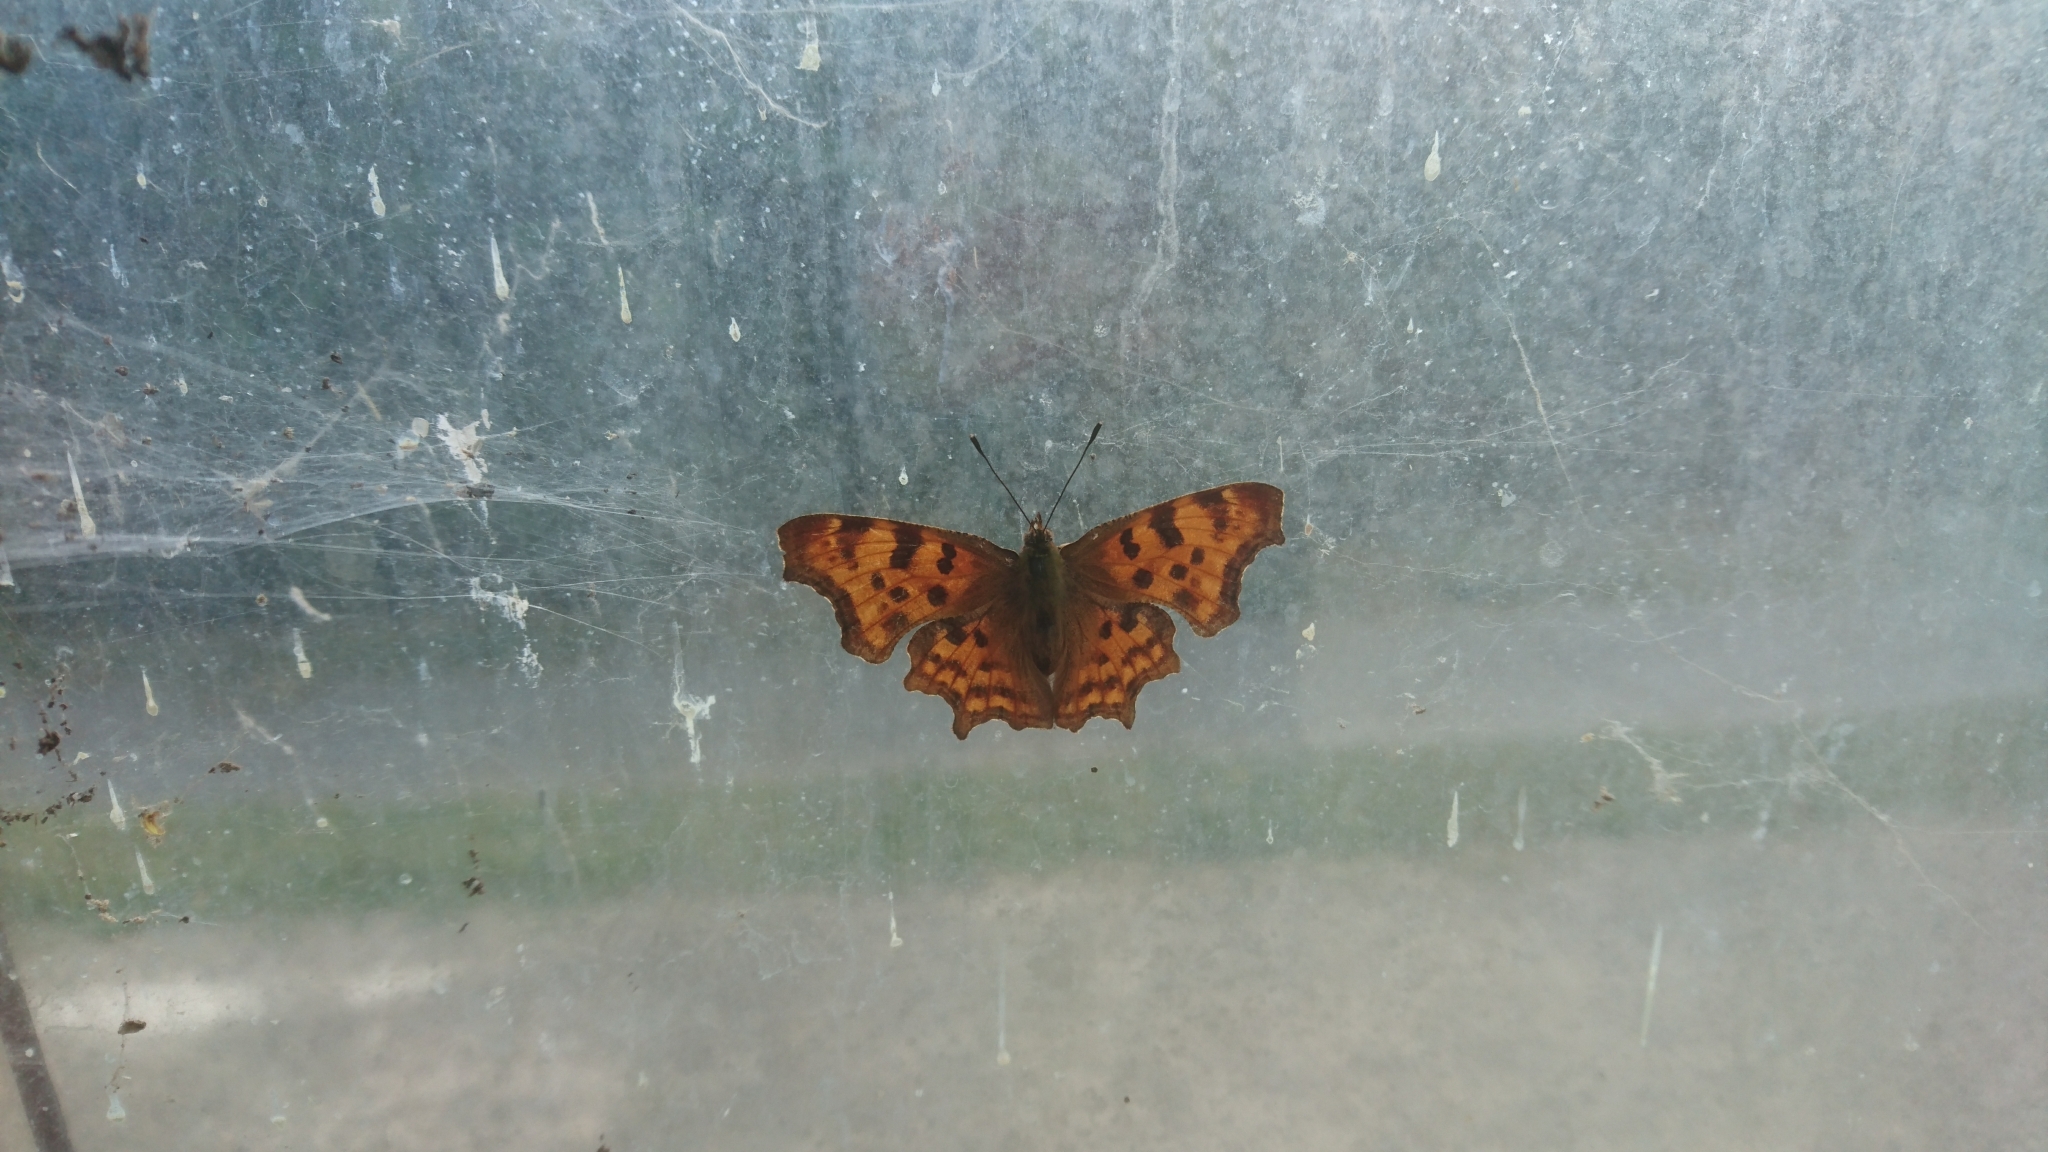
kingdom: Animalia
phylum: Arthropoda
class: Insecta
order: Lepidoptera
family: Nymphalidae
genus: Polygonia
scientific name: Polygonia c-album
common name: Comma
